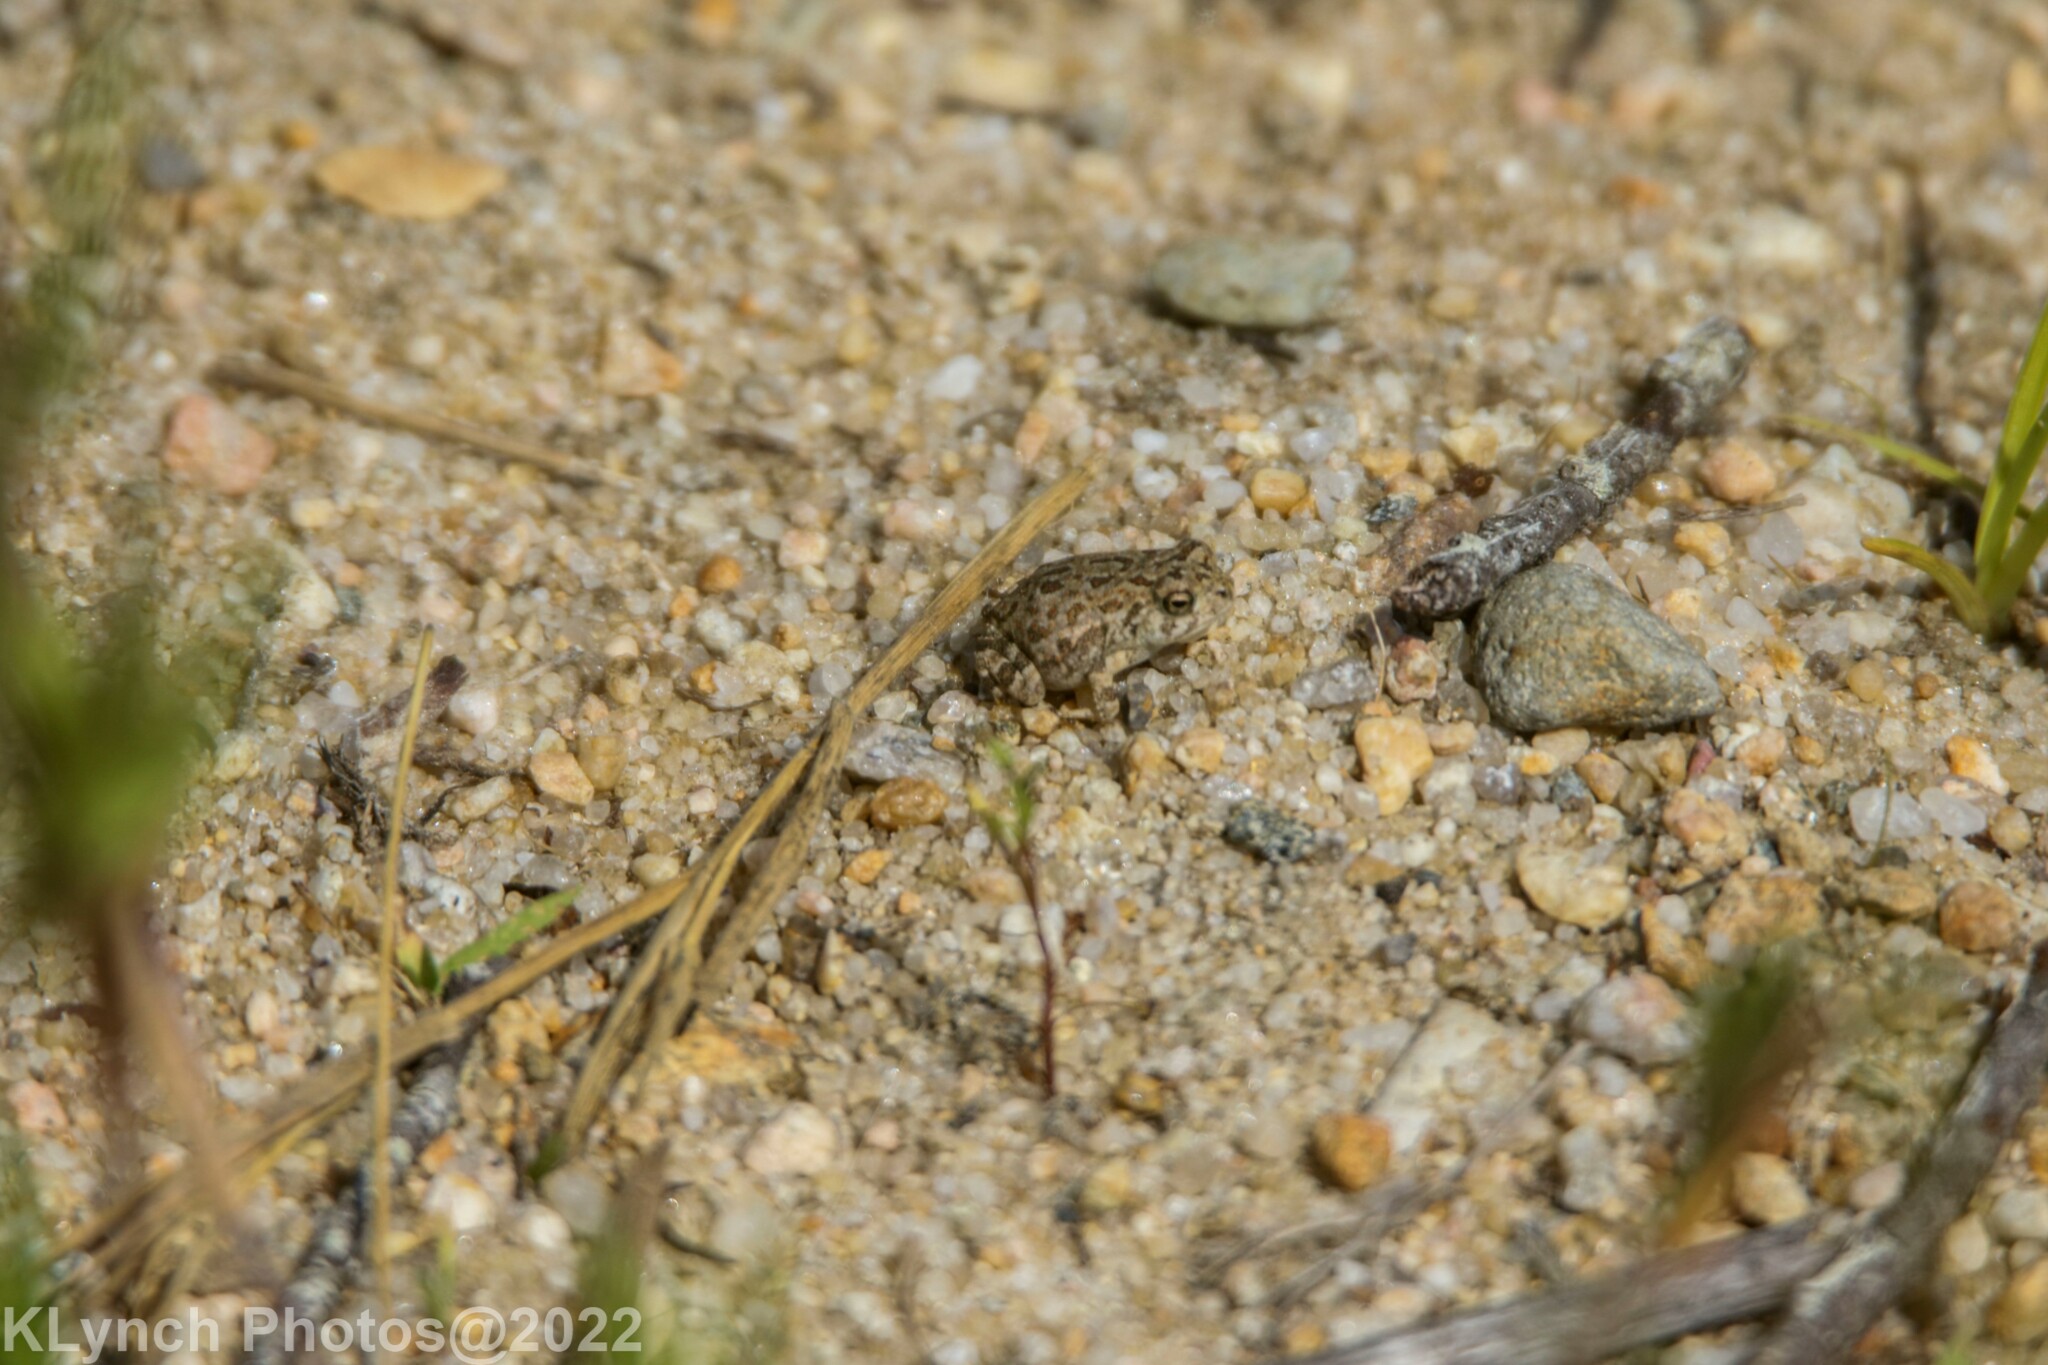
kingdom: Animalia
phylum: Chordata
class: Amphibia
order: Anura
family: Bufonidae
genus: Anaxyrus
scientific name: Anaxyrus fowleri
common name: Fowler's toad
